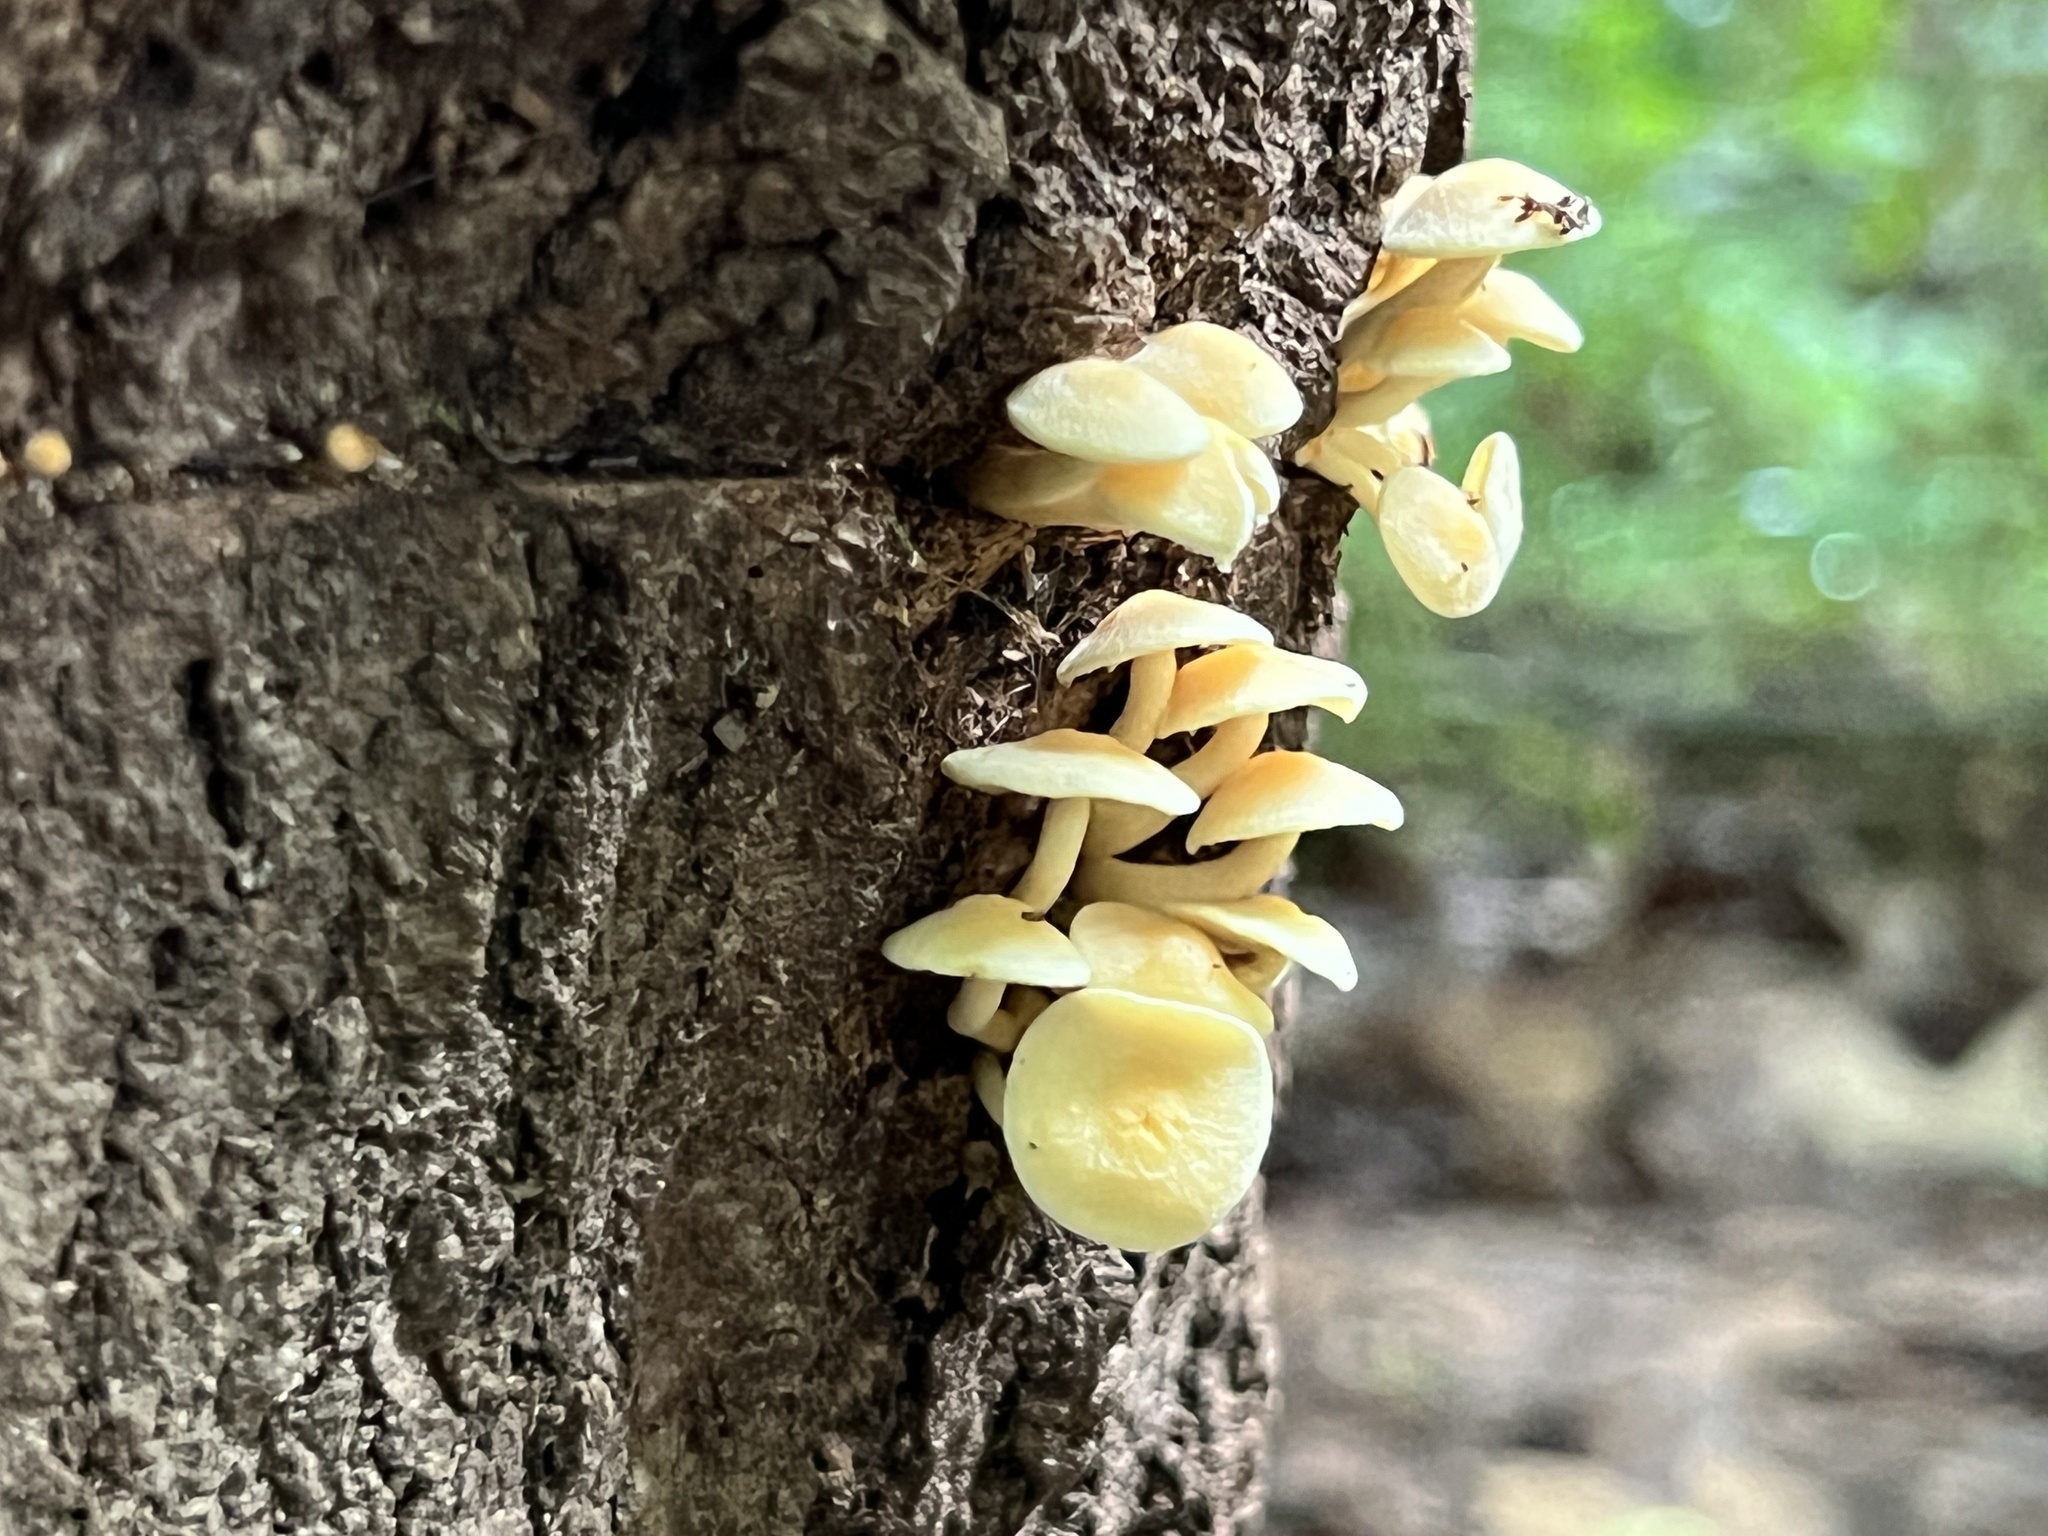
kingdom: Fungi
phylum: Basidiomycota
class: Agaricomycetes
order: Agaricales
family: Strophariaceae
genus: Hypholoma
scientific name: Hypholoma fasciculare
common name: Sulphur tuft
